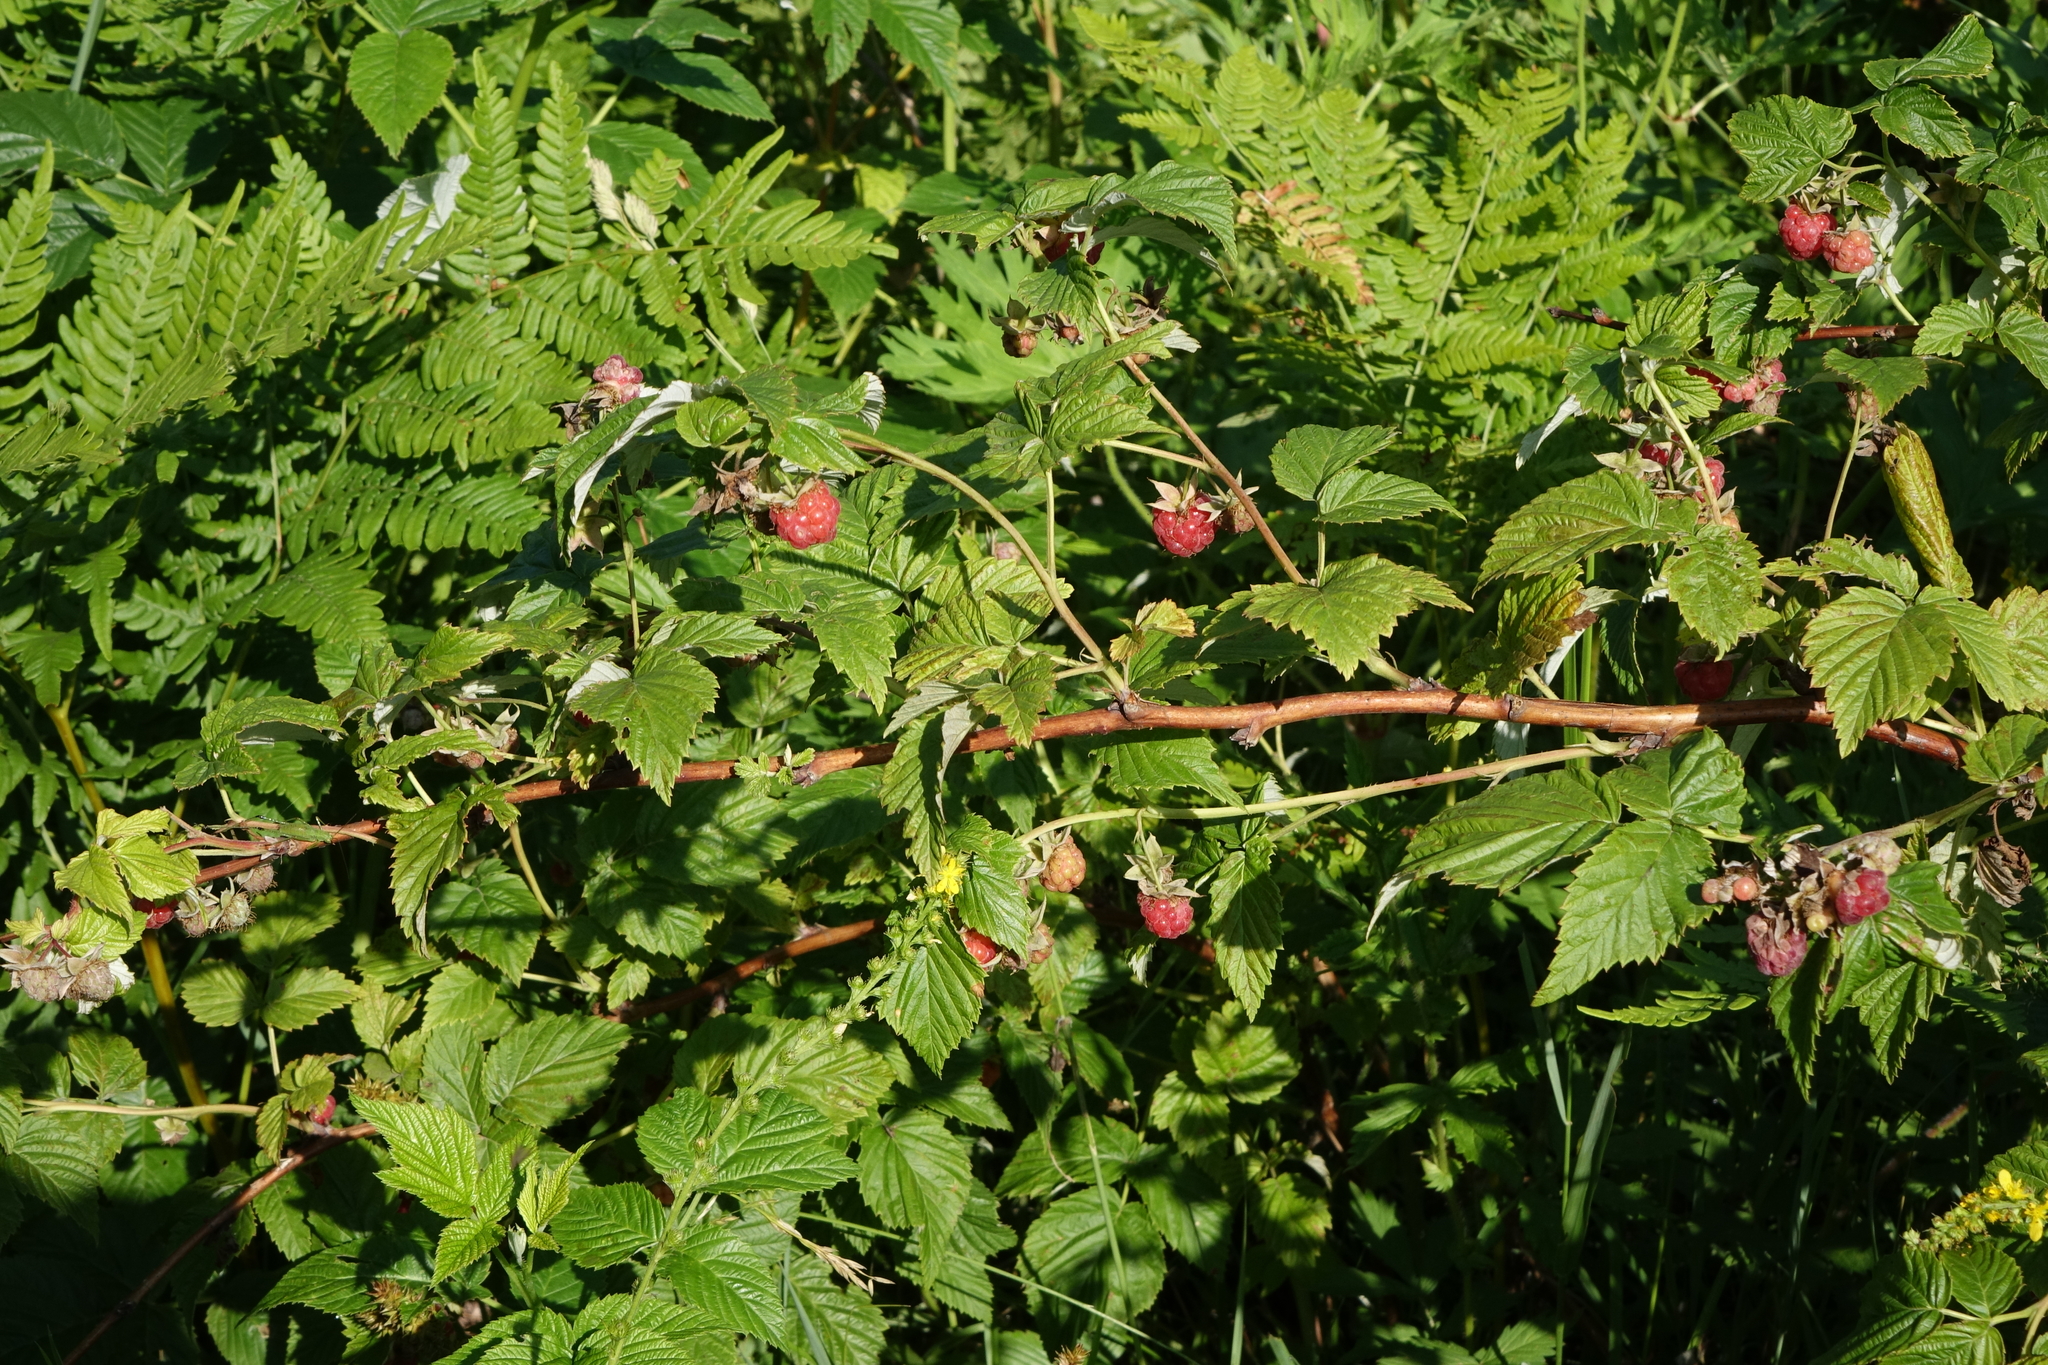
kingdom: Plantae
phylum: Tracheophyta
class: Magnoliopsida
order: Rosales
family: Rosaceae
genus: Rubus
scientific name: Rubus idaeus
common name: Raspberry
